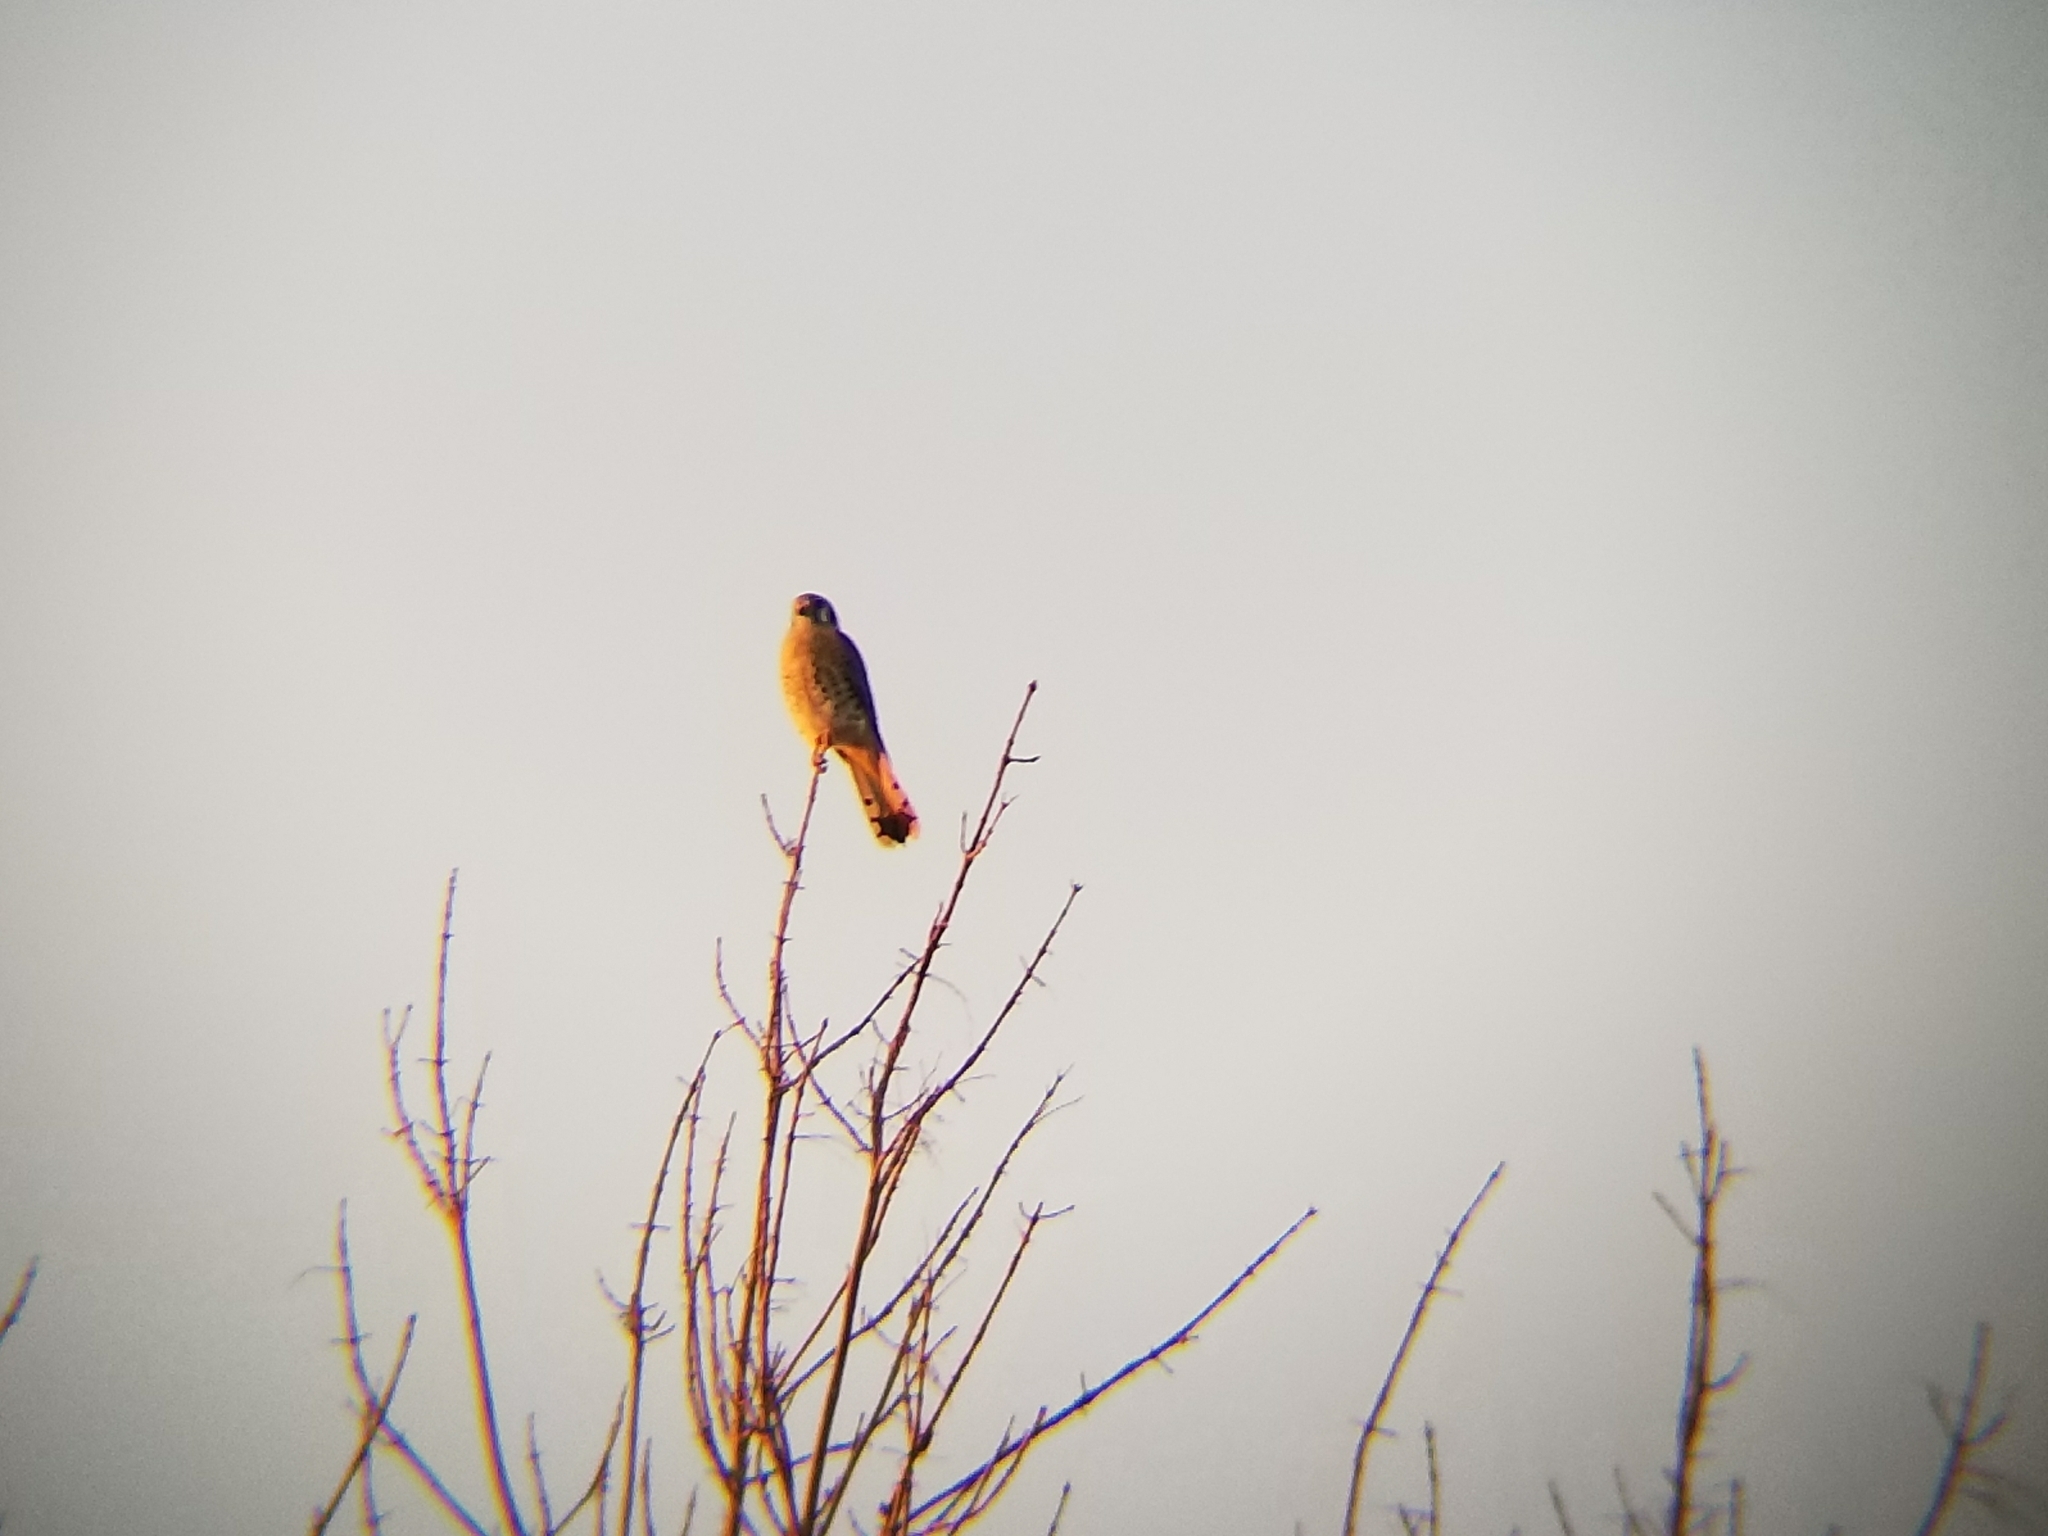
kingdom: Animalia
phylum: Chordata
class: Aves
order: Falconiformes
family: Falconidae
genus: Falco
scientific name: Falco sparverius
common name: American kestrel
